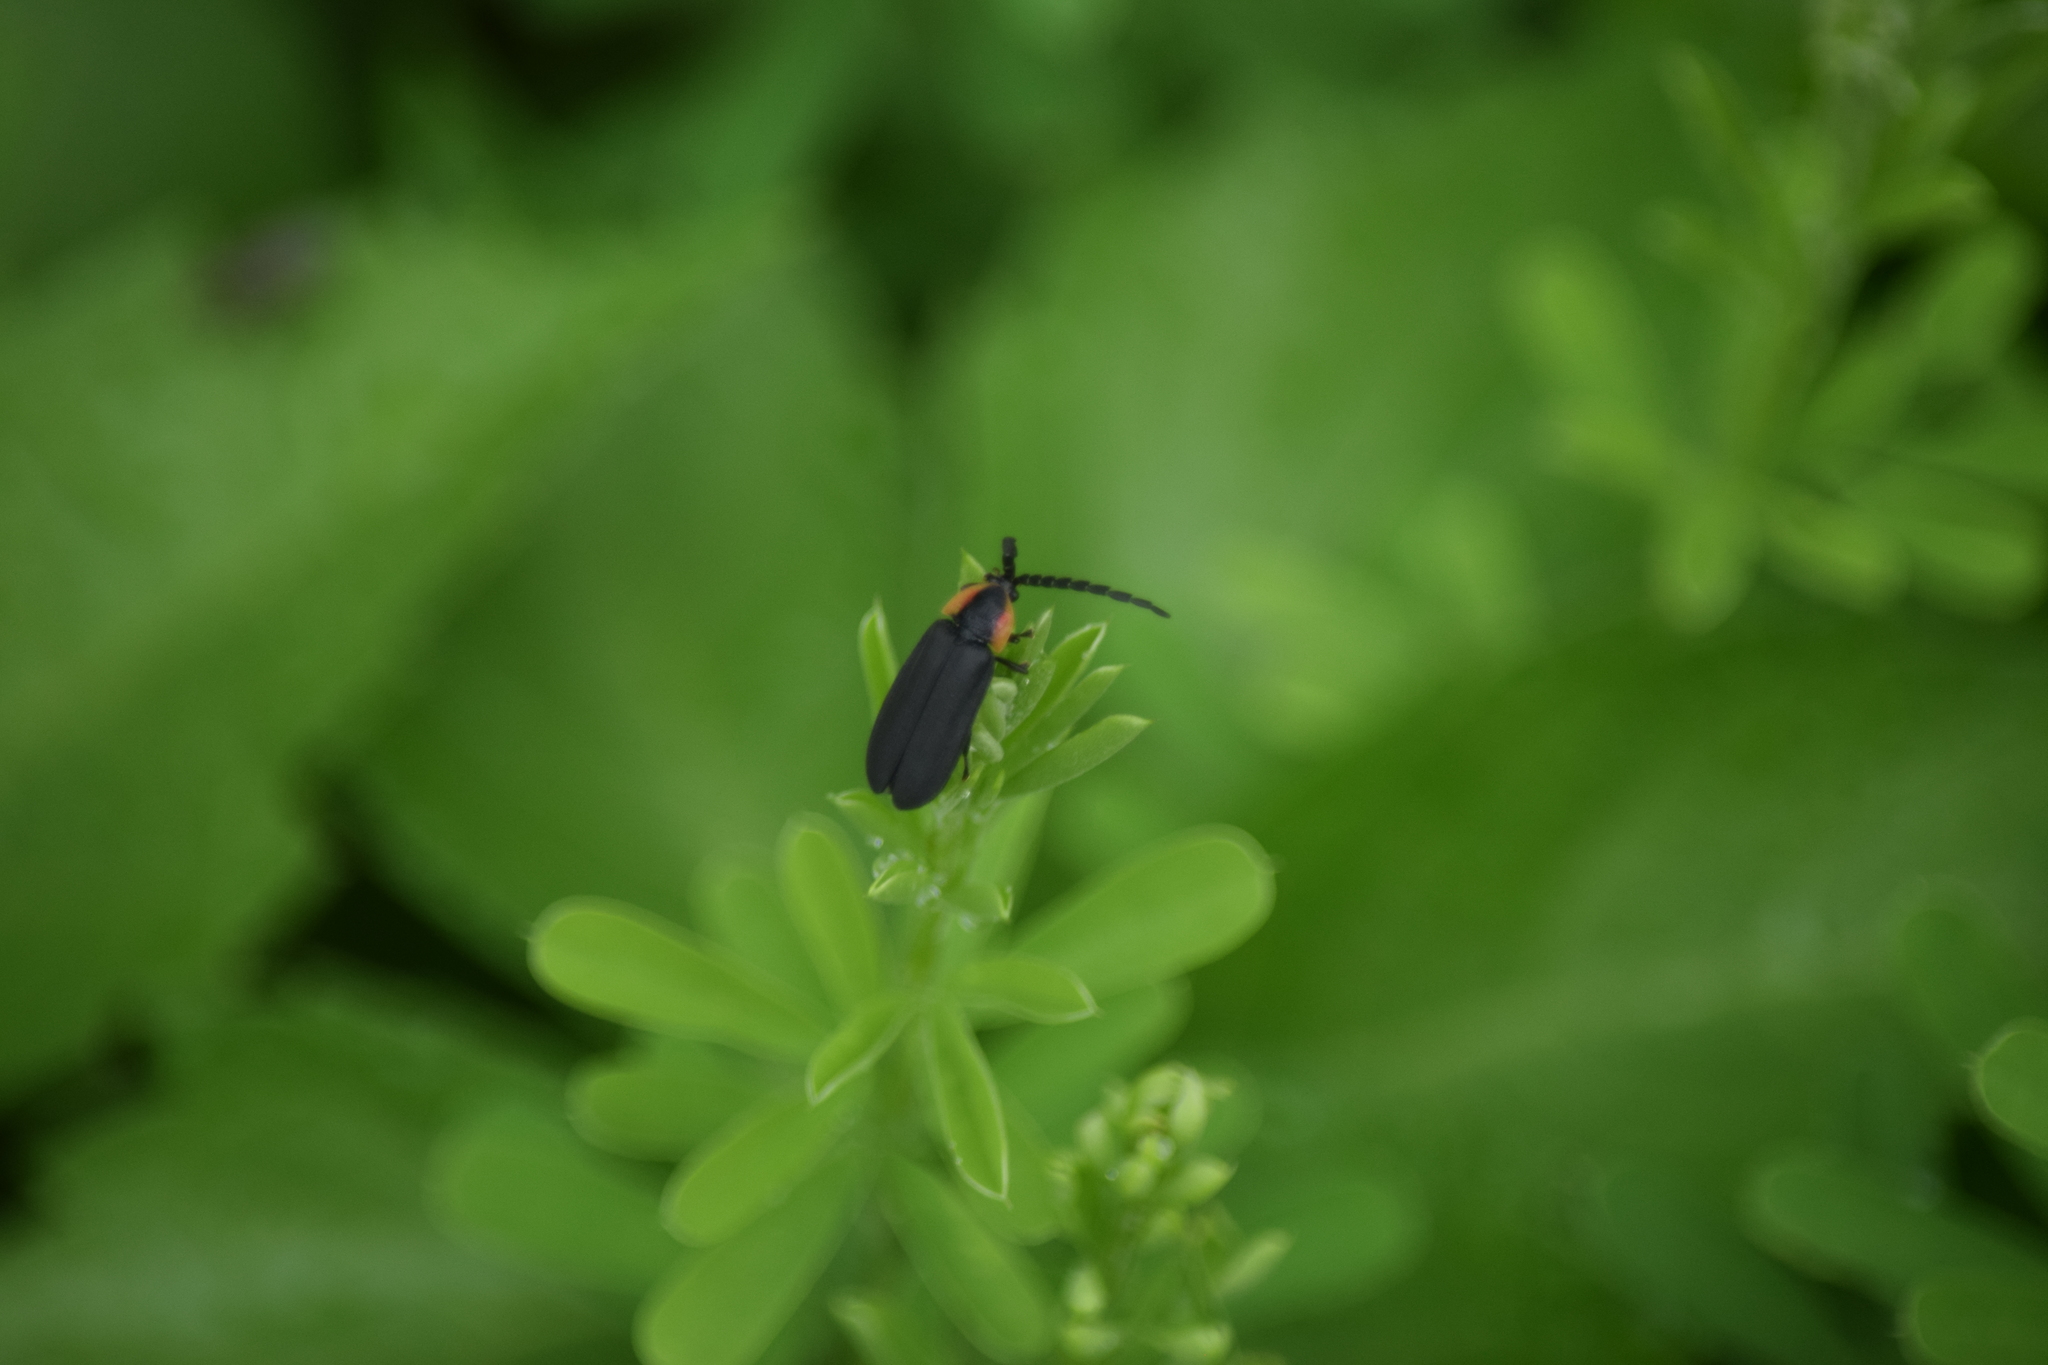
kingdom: Animalia
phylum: Arthropoda
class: Insecta
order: Coleoptera
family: Lampyridae
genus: Lucidota
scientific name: Lucidota atra
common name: Black firefly
